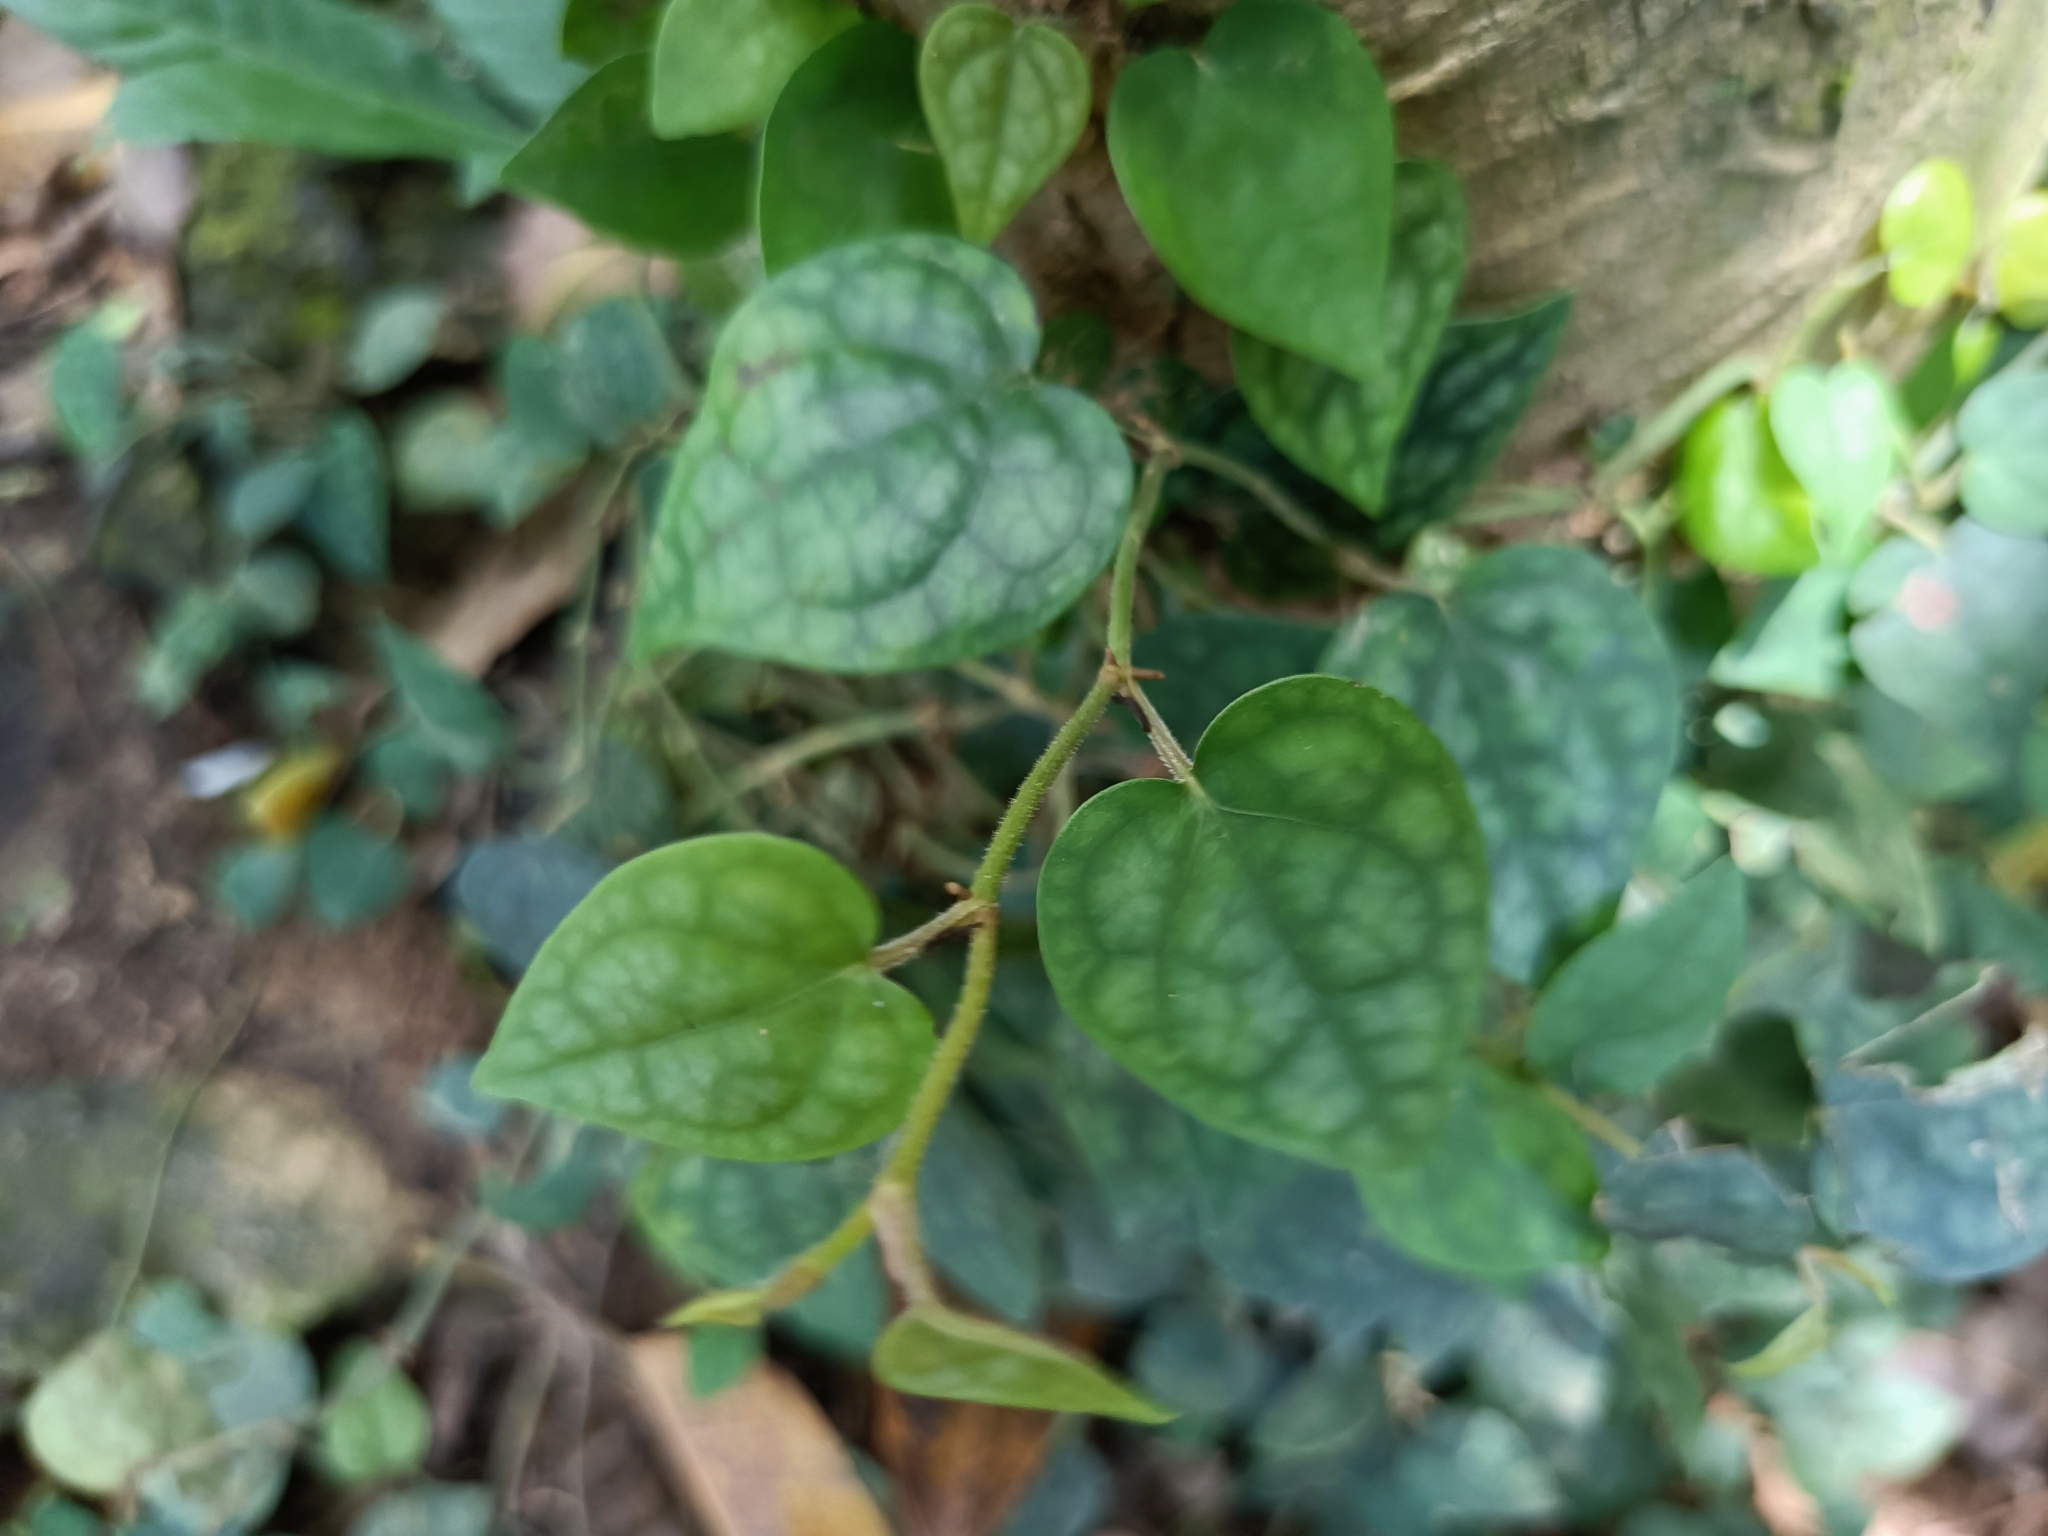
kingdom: Plantae
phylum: Tracheophyta
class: Magnoliopsida
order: Piperales
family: Piperaceae
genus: Piper
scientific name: Piper kadsura
